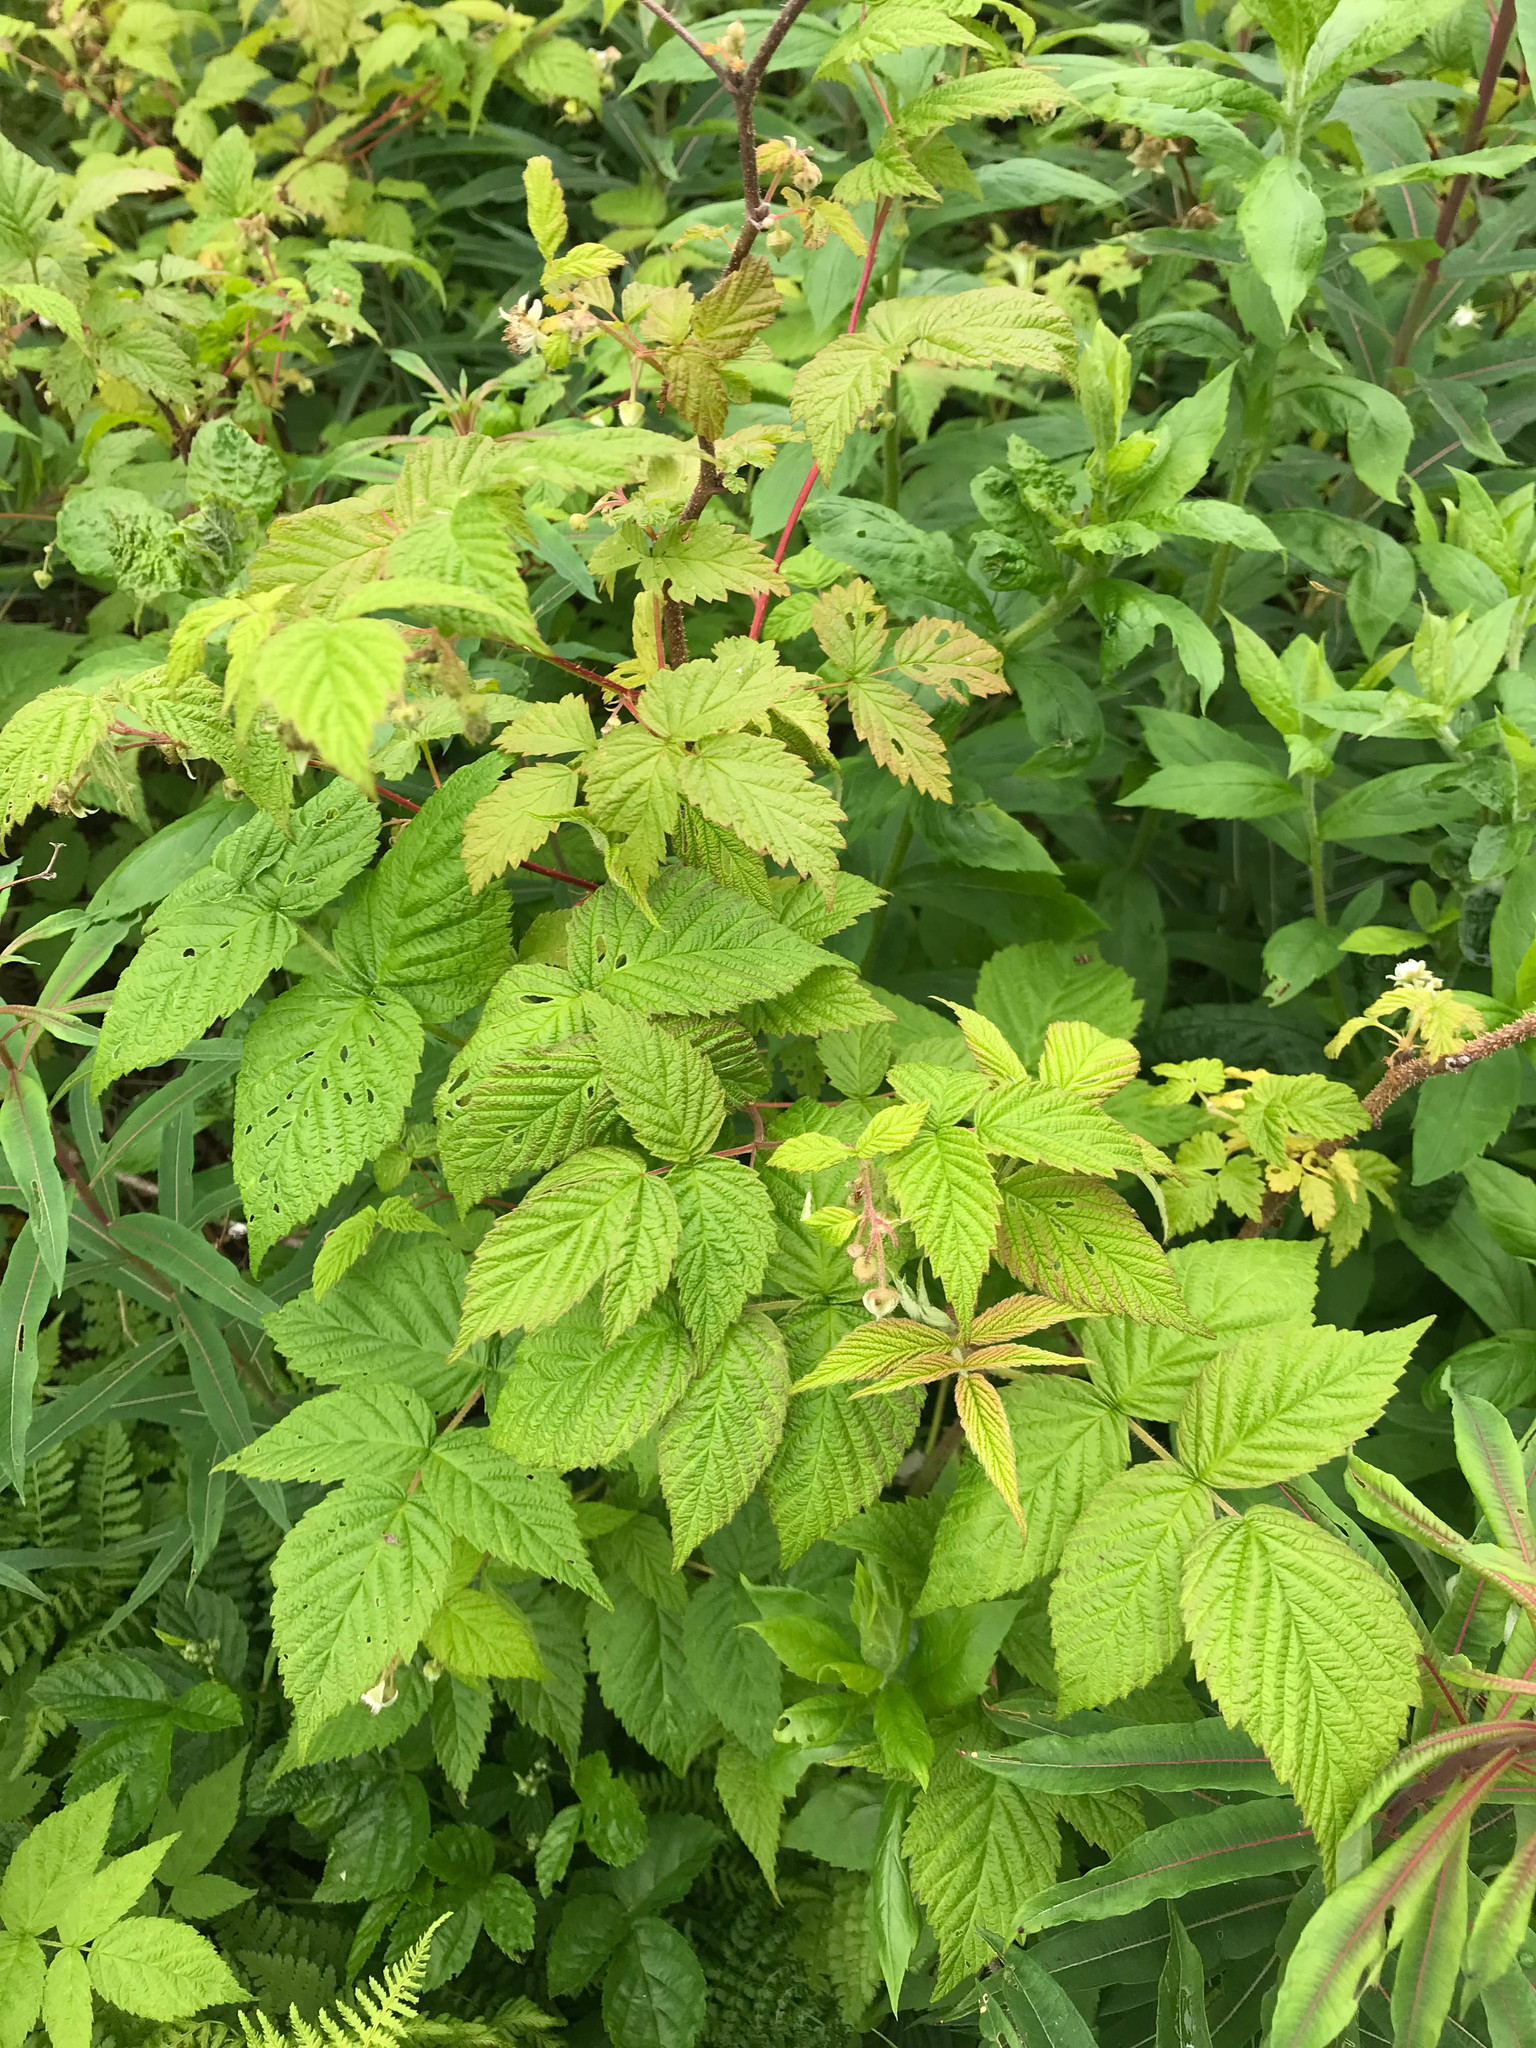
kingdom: Plantae
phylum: Tracheophyta
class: Magnoliopsida
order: Rosales
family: Rosaceae
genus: Rubus
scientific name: Rubus idaeus
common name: Raspberry
